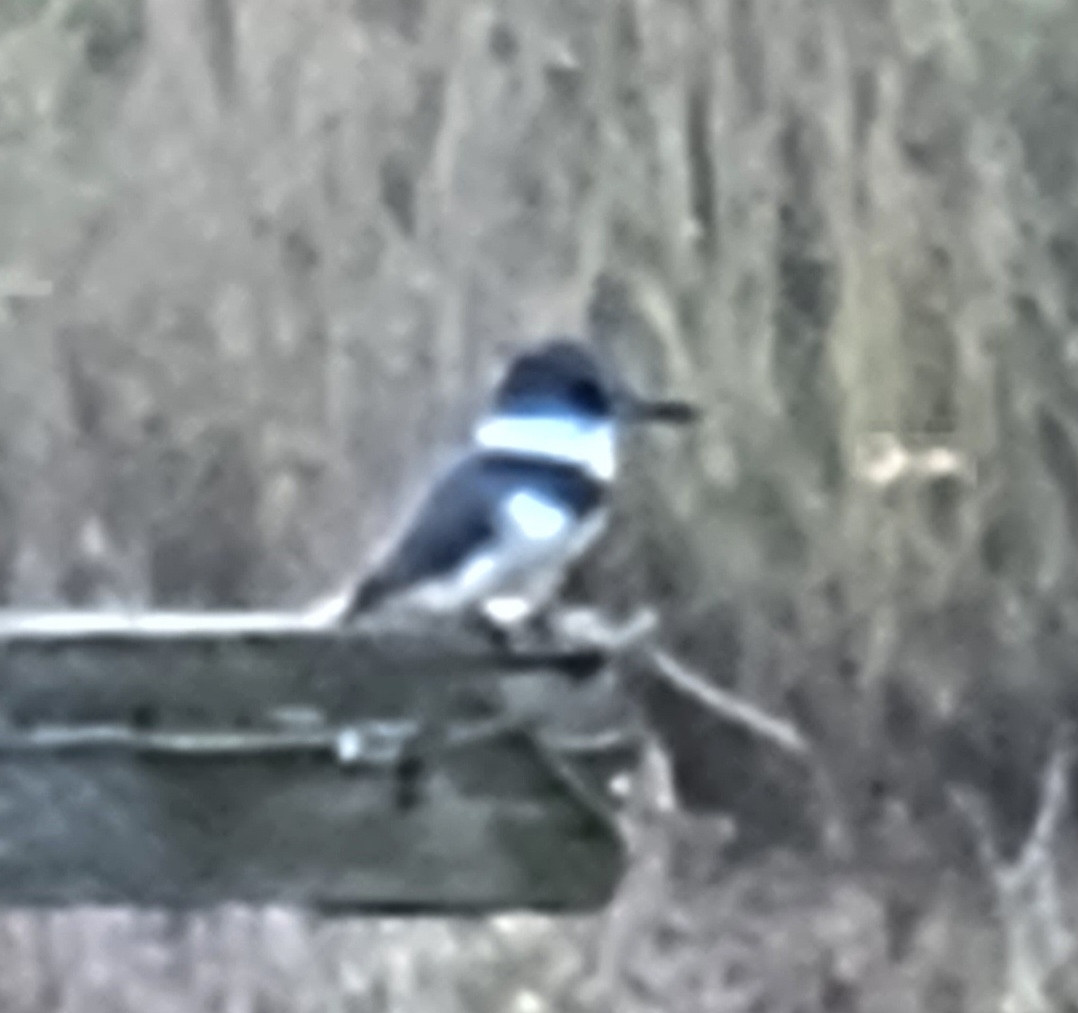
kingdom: Animalia
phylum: Chordata
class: Aves
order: Coraciiformes
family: Alcedinidae
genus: Megaceryle
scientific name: Megaceryle alcyon
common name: Belted kingfisher
